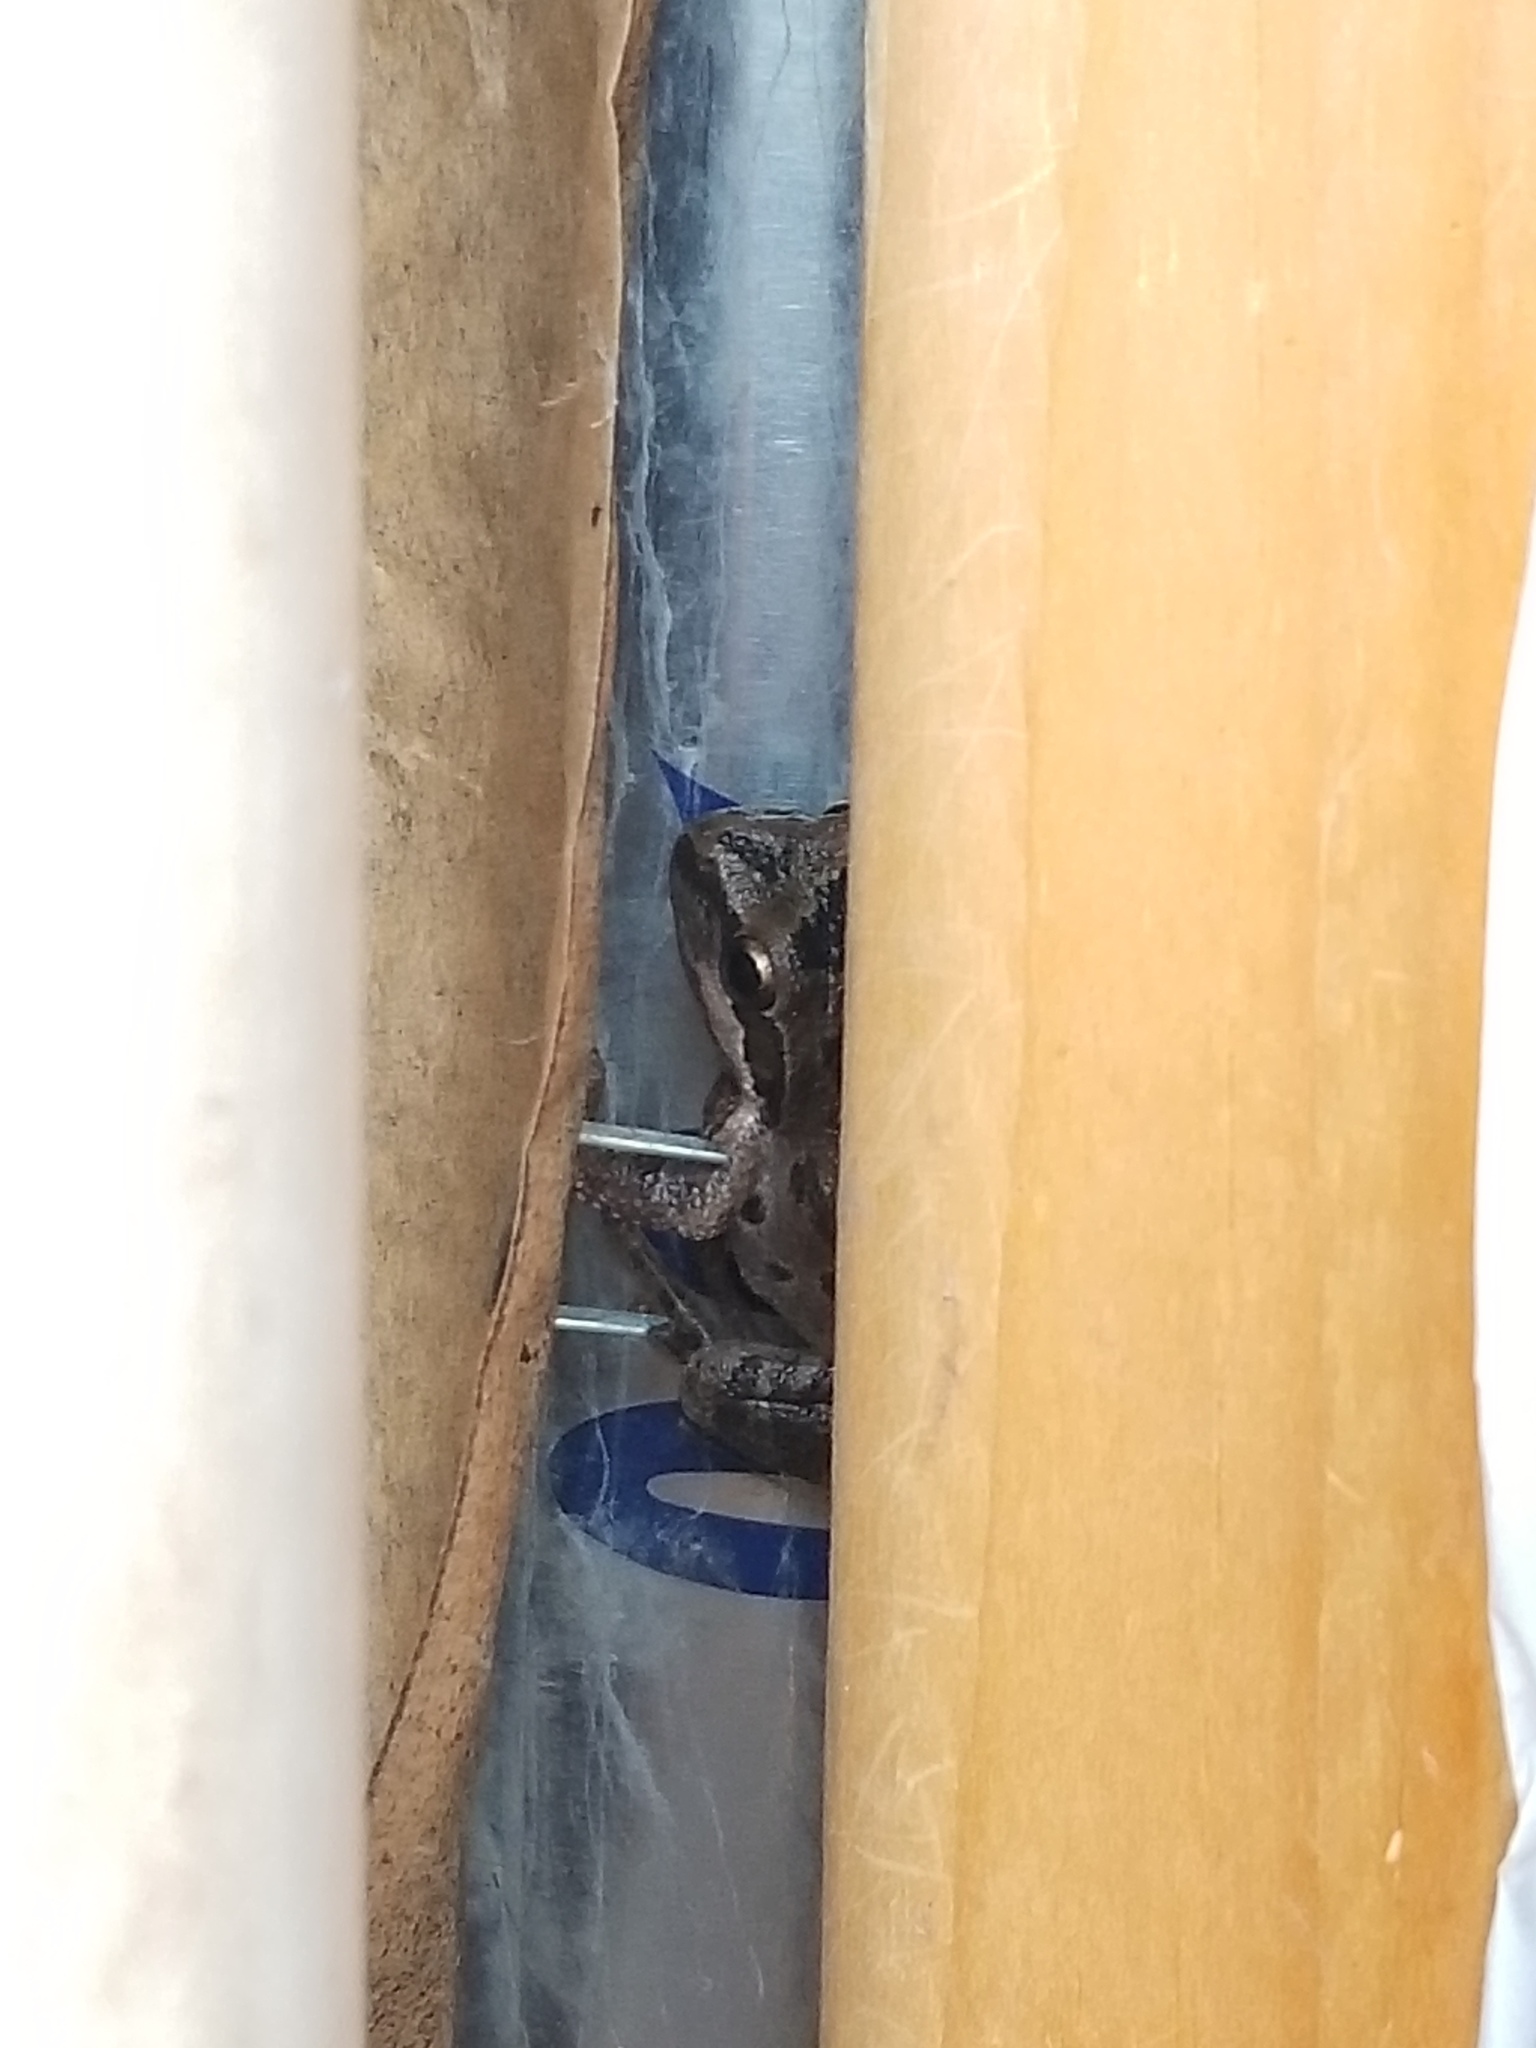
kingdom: Animalia
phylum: Chordata
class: Amphibia
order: Anura
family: Hylidae
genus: Pseudacris
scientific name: Pseudacris regilla
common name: Pacific chorus frog
